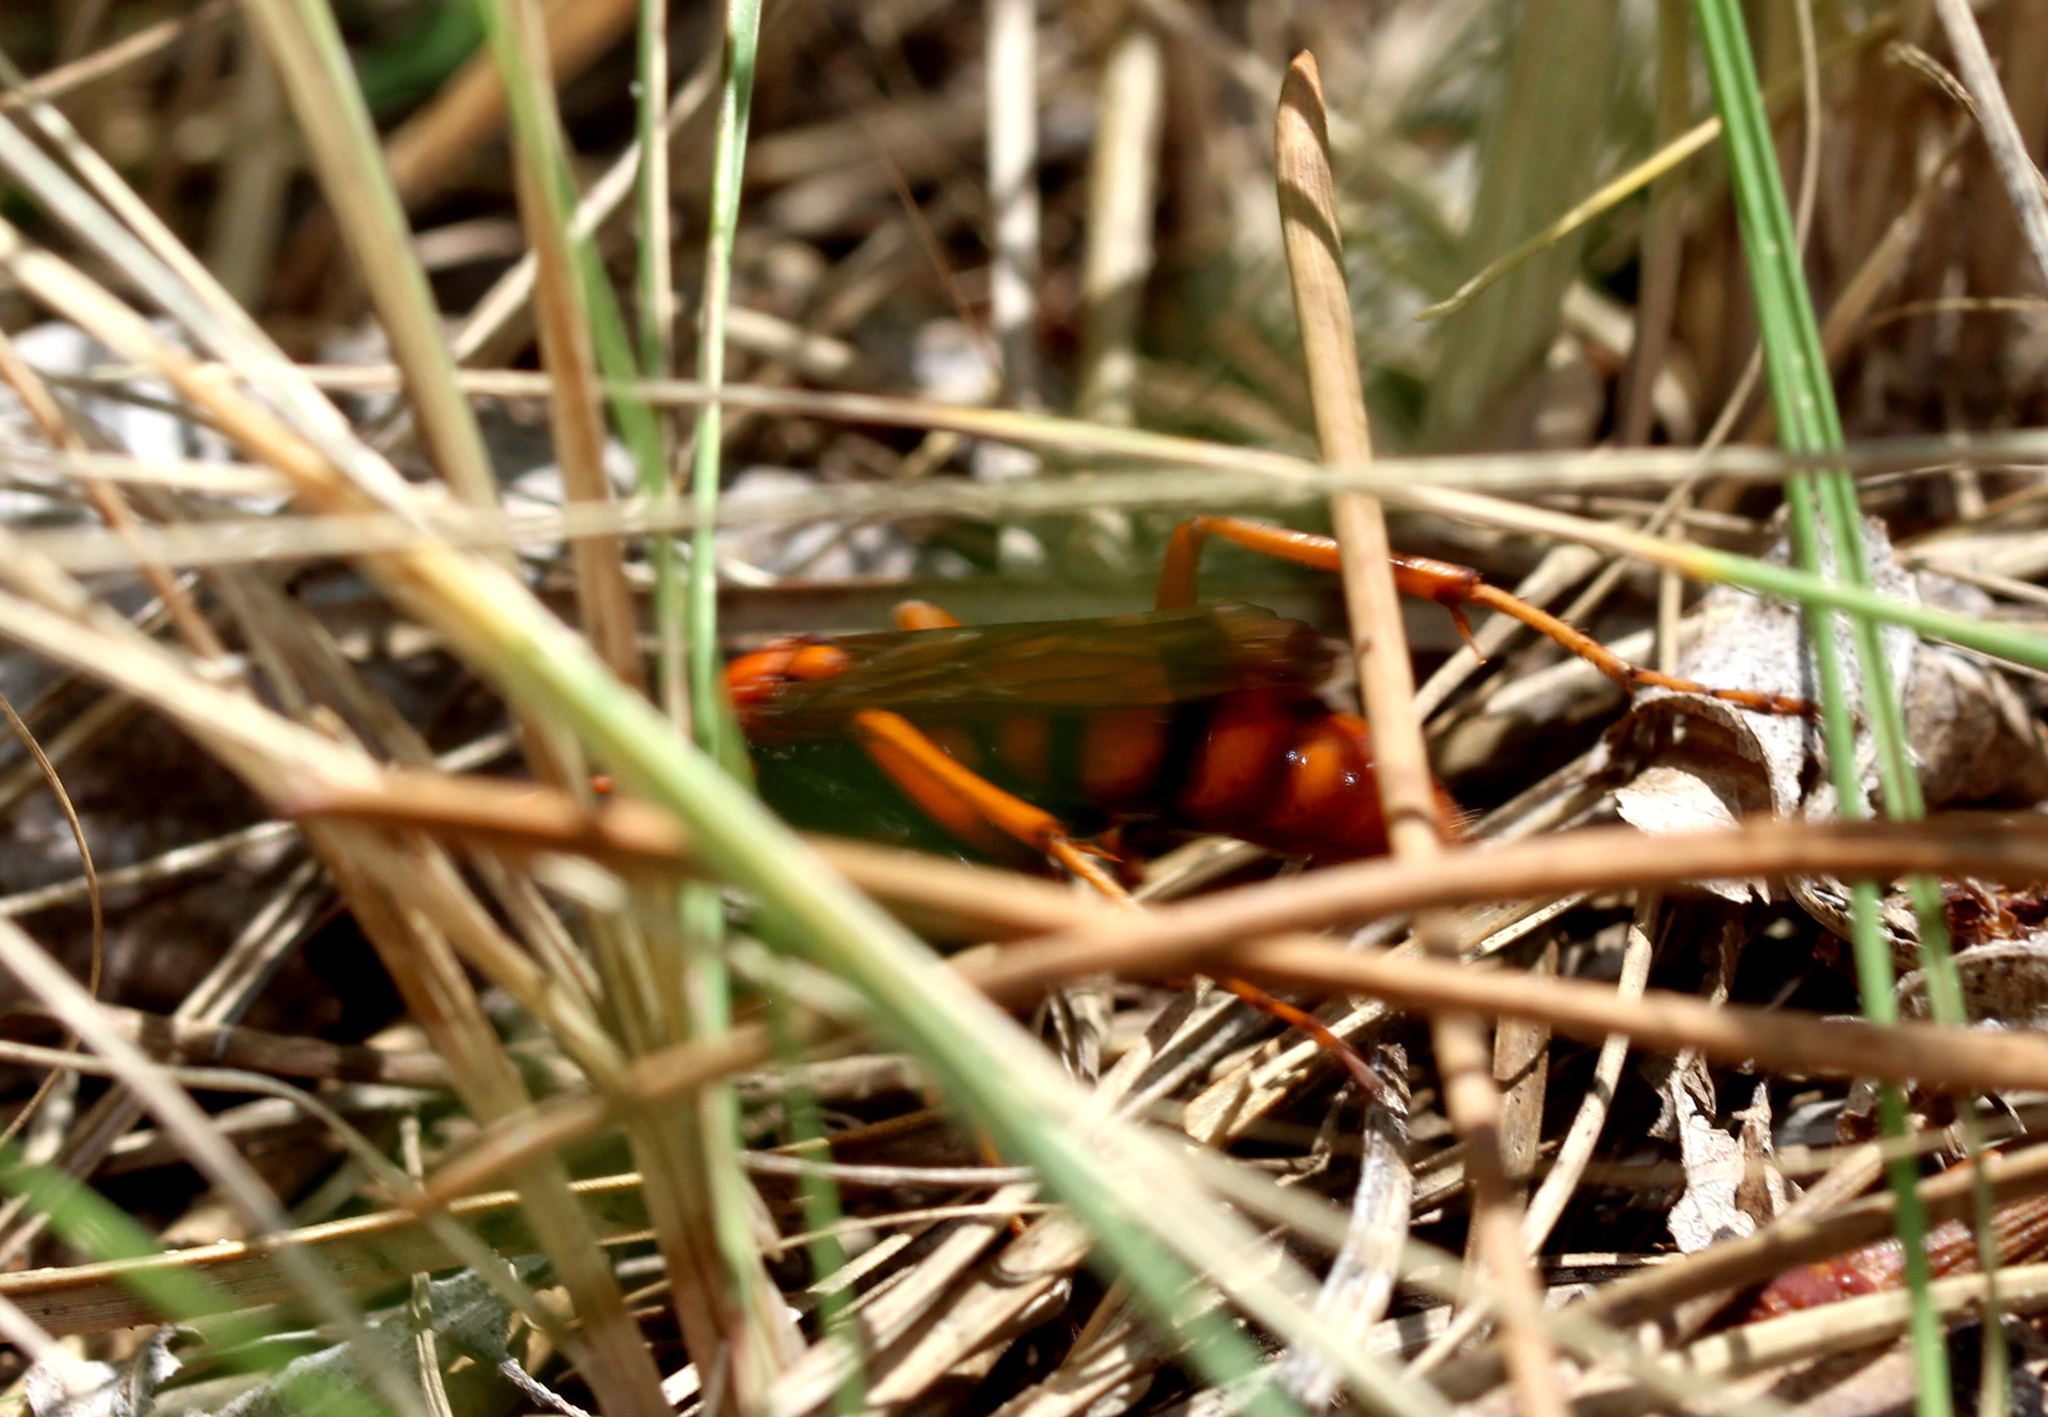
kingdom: Animalia
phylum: Arthropoda
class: Insecta
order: Hymenoptera
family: Pompilidae
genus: Tachypompilus
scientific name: Tachypompilus erubescens
